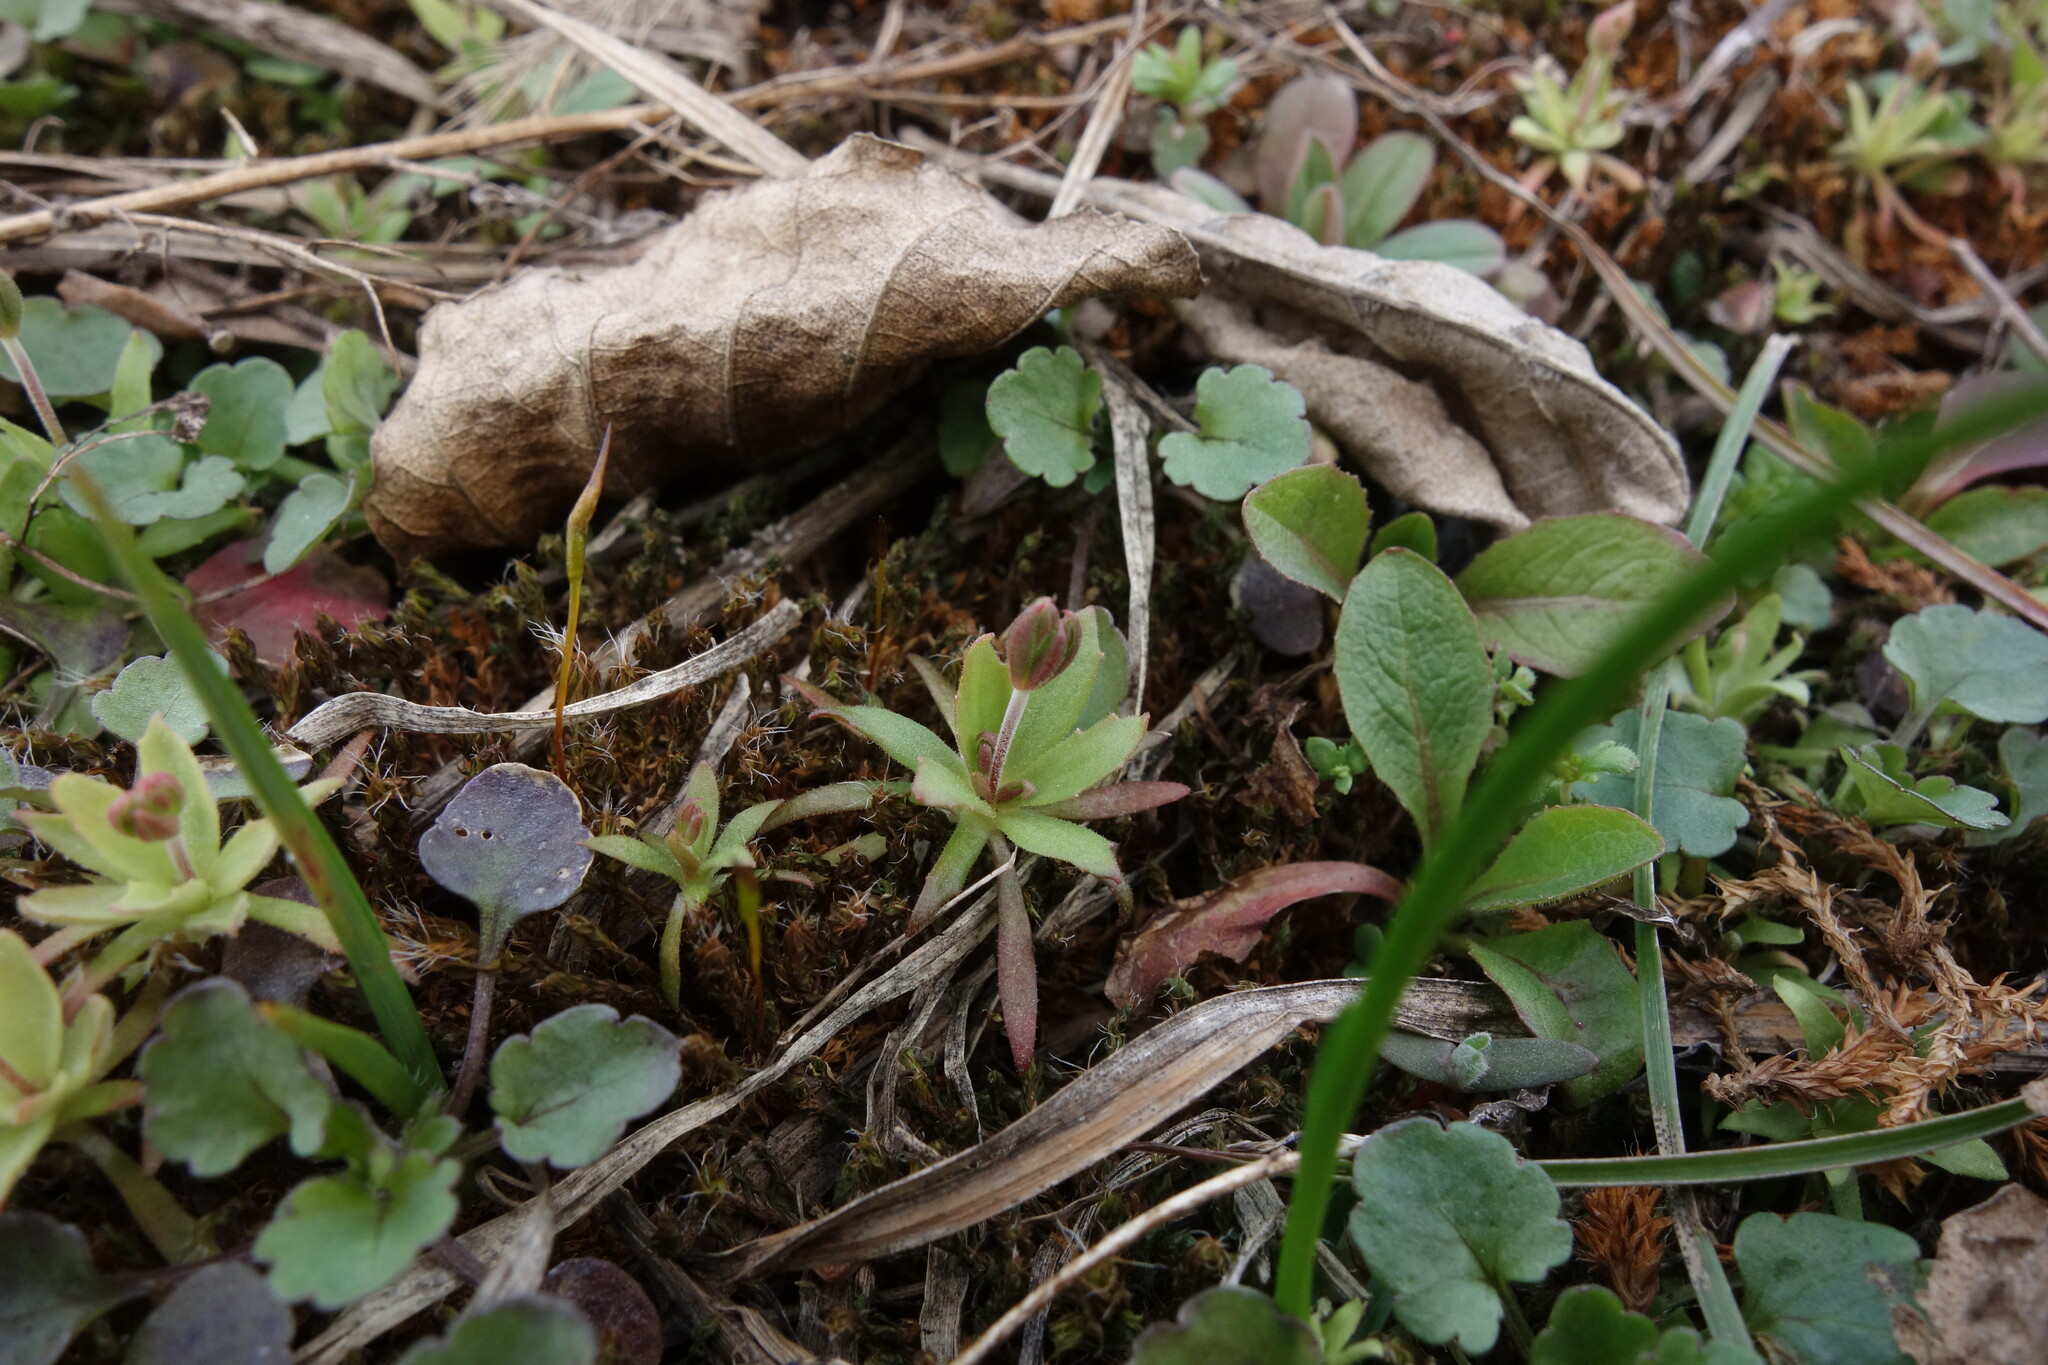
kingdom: Plantae
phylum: Tracheophyta
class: Magnoliopsida
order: Ericales
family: Primulaceae
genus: Androsace
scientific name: Androsace elongata
